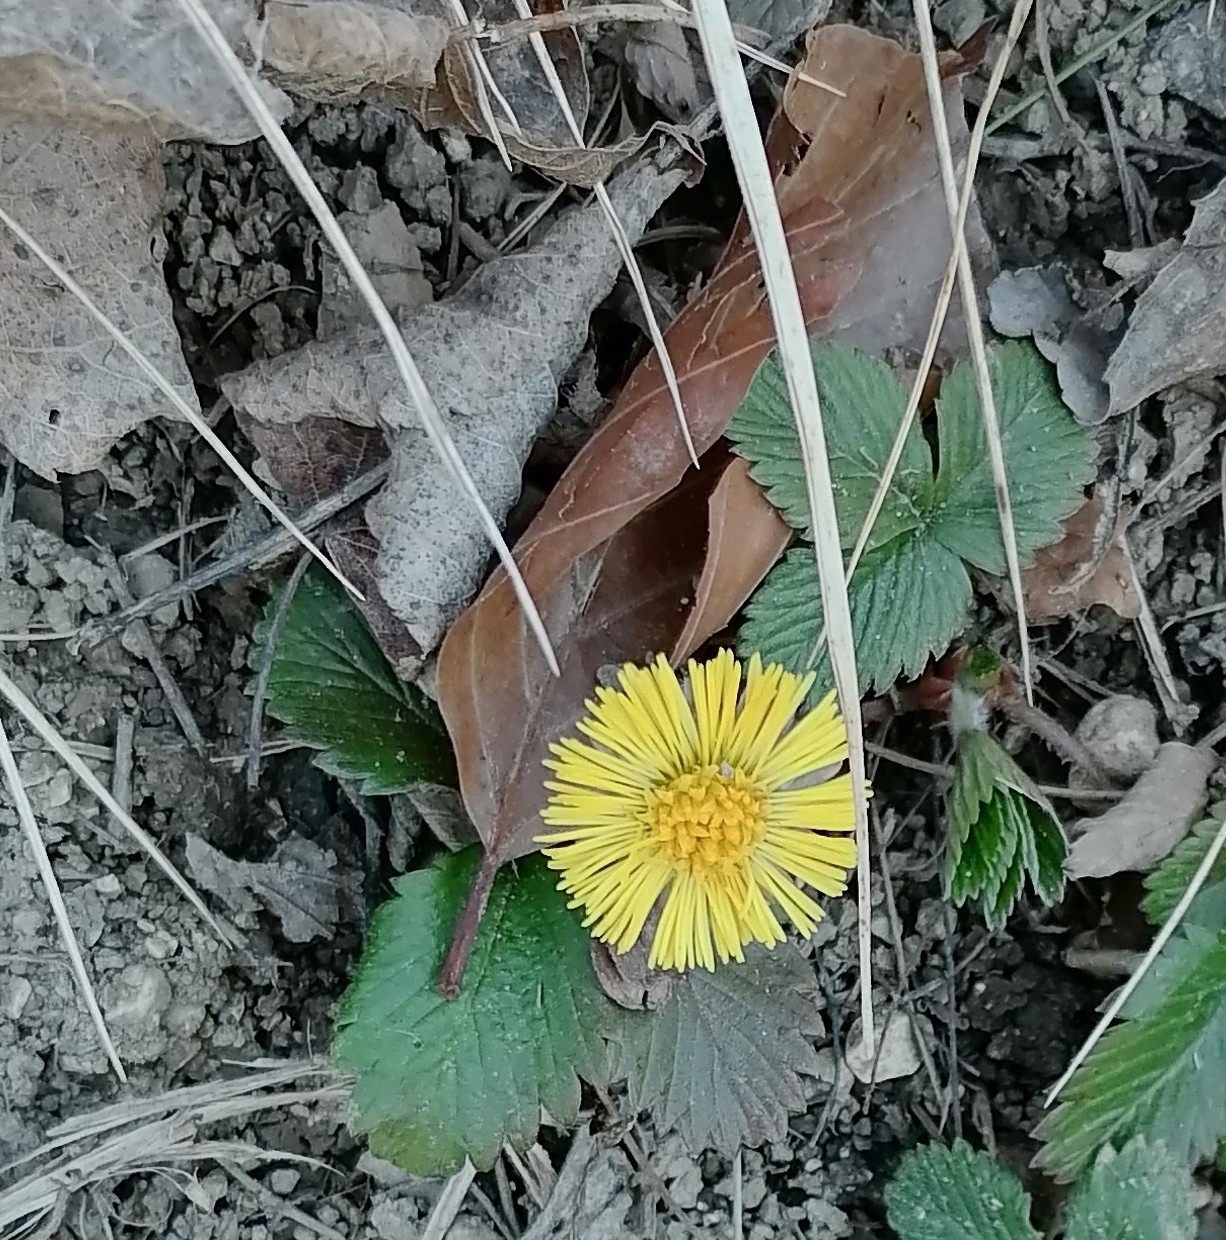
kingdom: Plantae
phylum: Tracheophyta
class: Magnoliopsida
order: Asterales
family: Asteraceae
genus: Tussilago
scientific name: Tussilago farfara
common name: Coltsfoot
